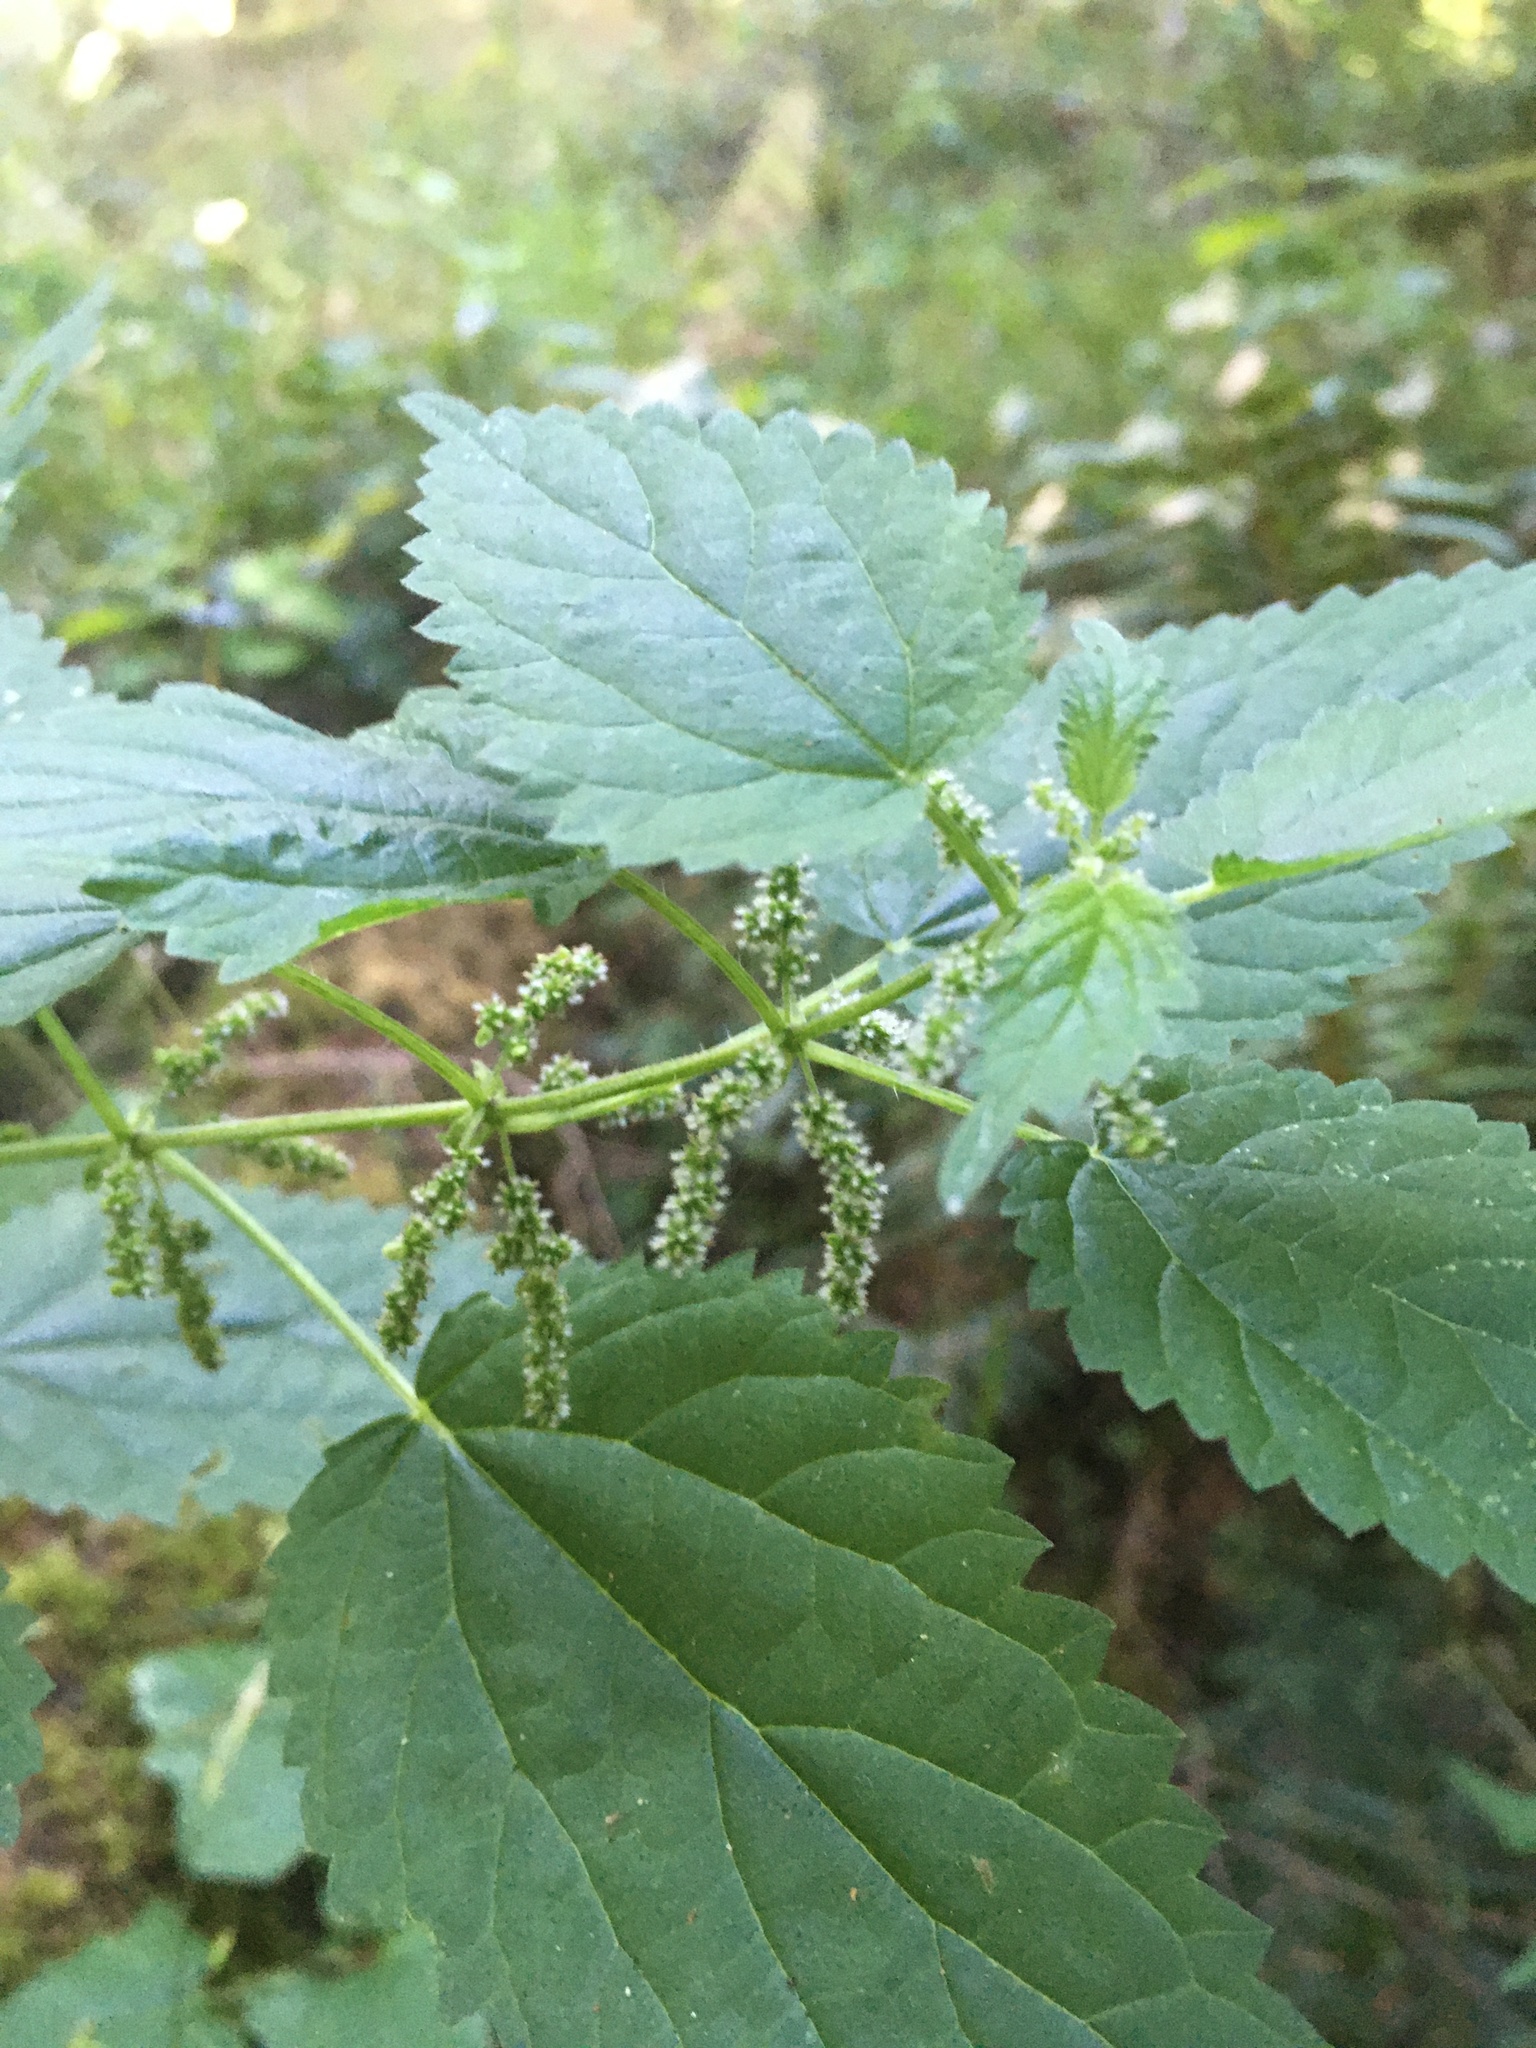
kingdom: Plantae
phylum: Tracheophyta
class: Magnoliopsida
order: Rosales
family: Urticaceae
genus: Urtica
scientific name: Urtica dioica
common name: Common nettle
